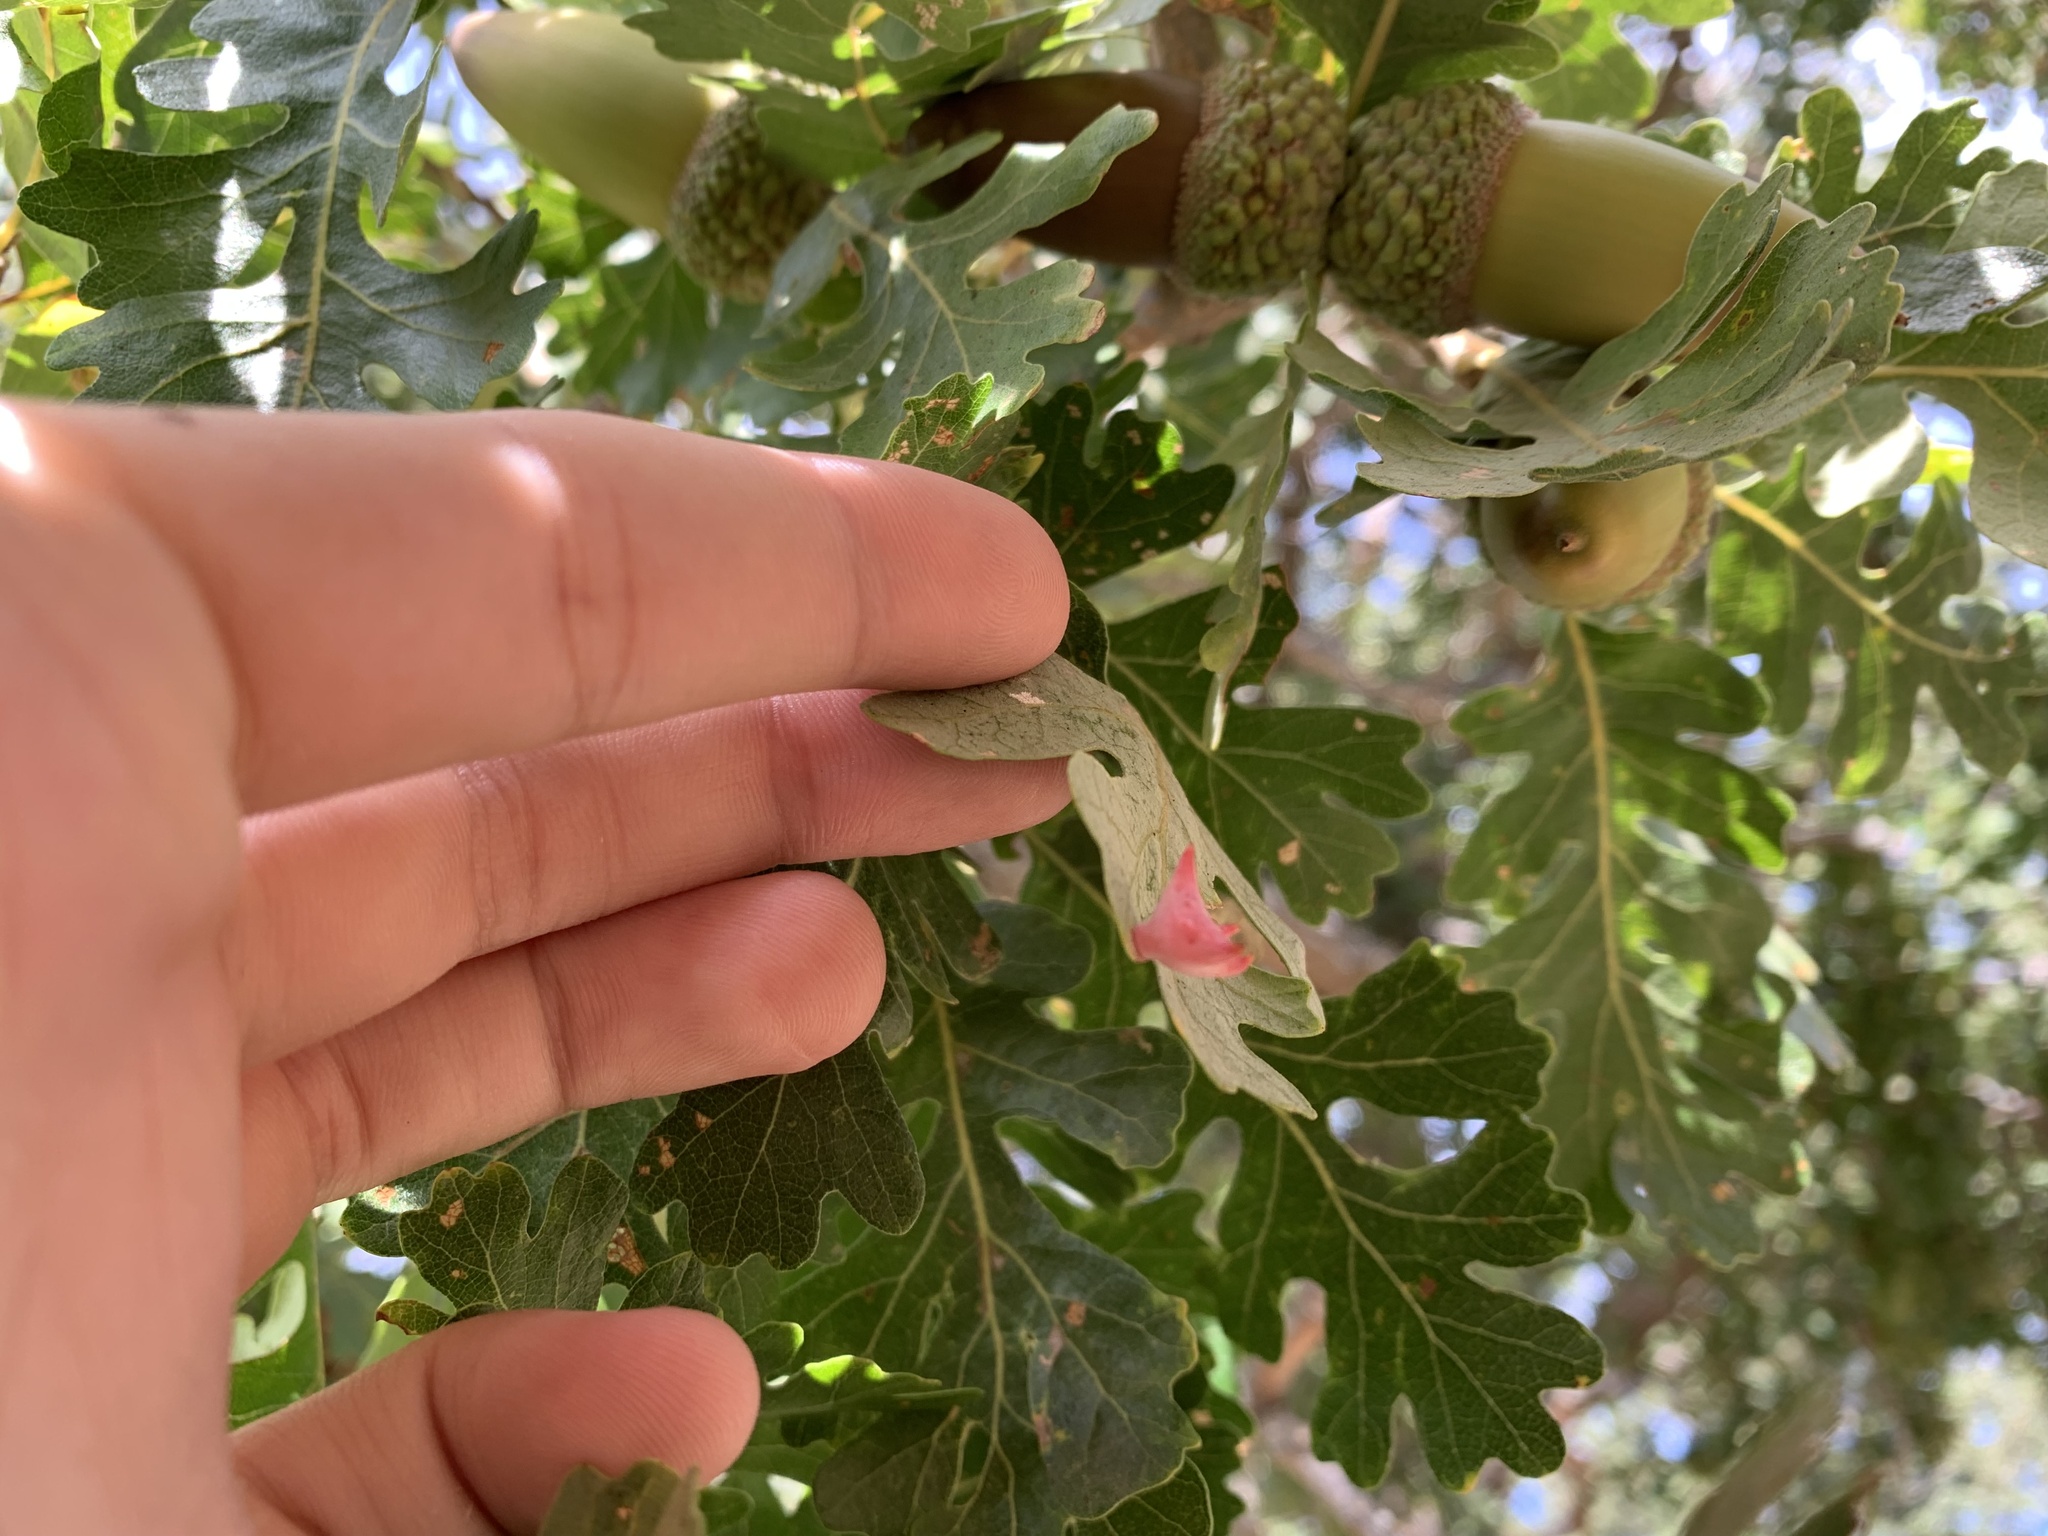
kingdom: Animalia
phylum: Arthropoda
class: Insecta
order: Hymenoptera
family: Cynipidae
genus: Cynips
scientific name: Cynips douglasi
